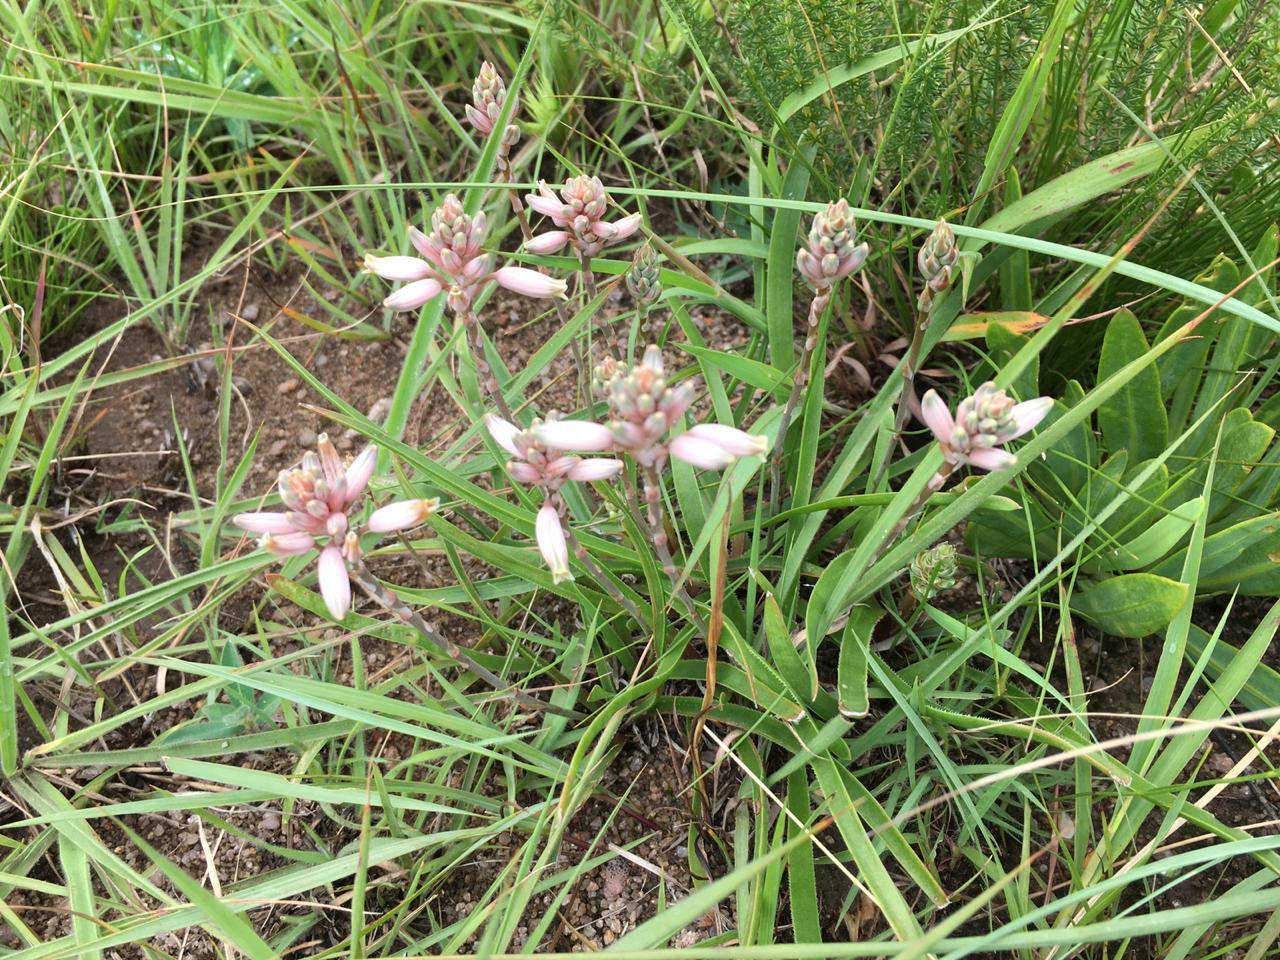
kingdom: Plantae
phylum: Tracheophyta
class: Liliopsida
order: Asparagales
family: Asphodelaceae
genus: Aloe
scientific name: Aloe saundersiae
